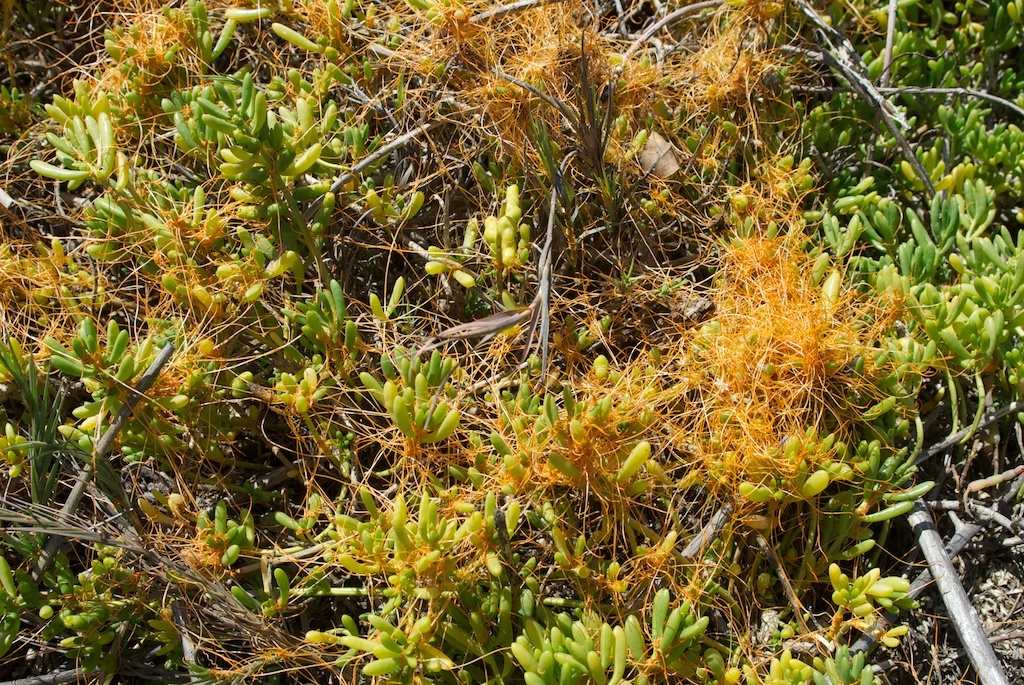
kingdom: Plantae
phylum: Tracheophyta
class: Magnoliopsida
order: Brassicales
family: Bataceae
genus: Batis
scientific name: Batis maritima
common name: Turtleweed
